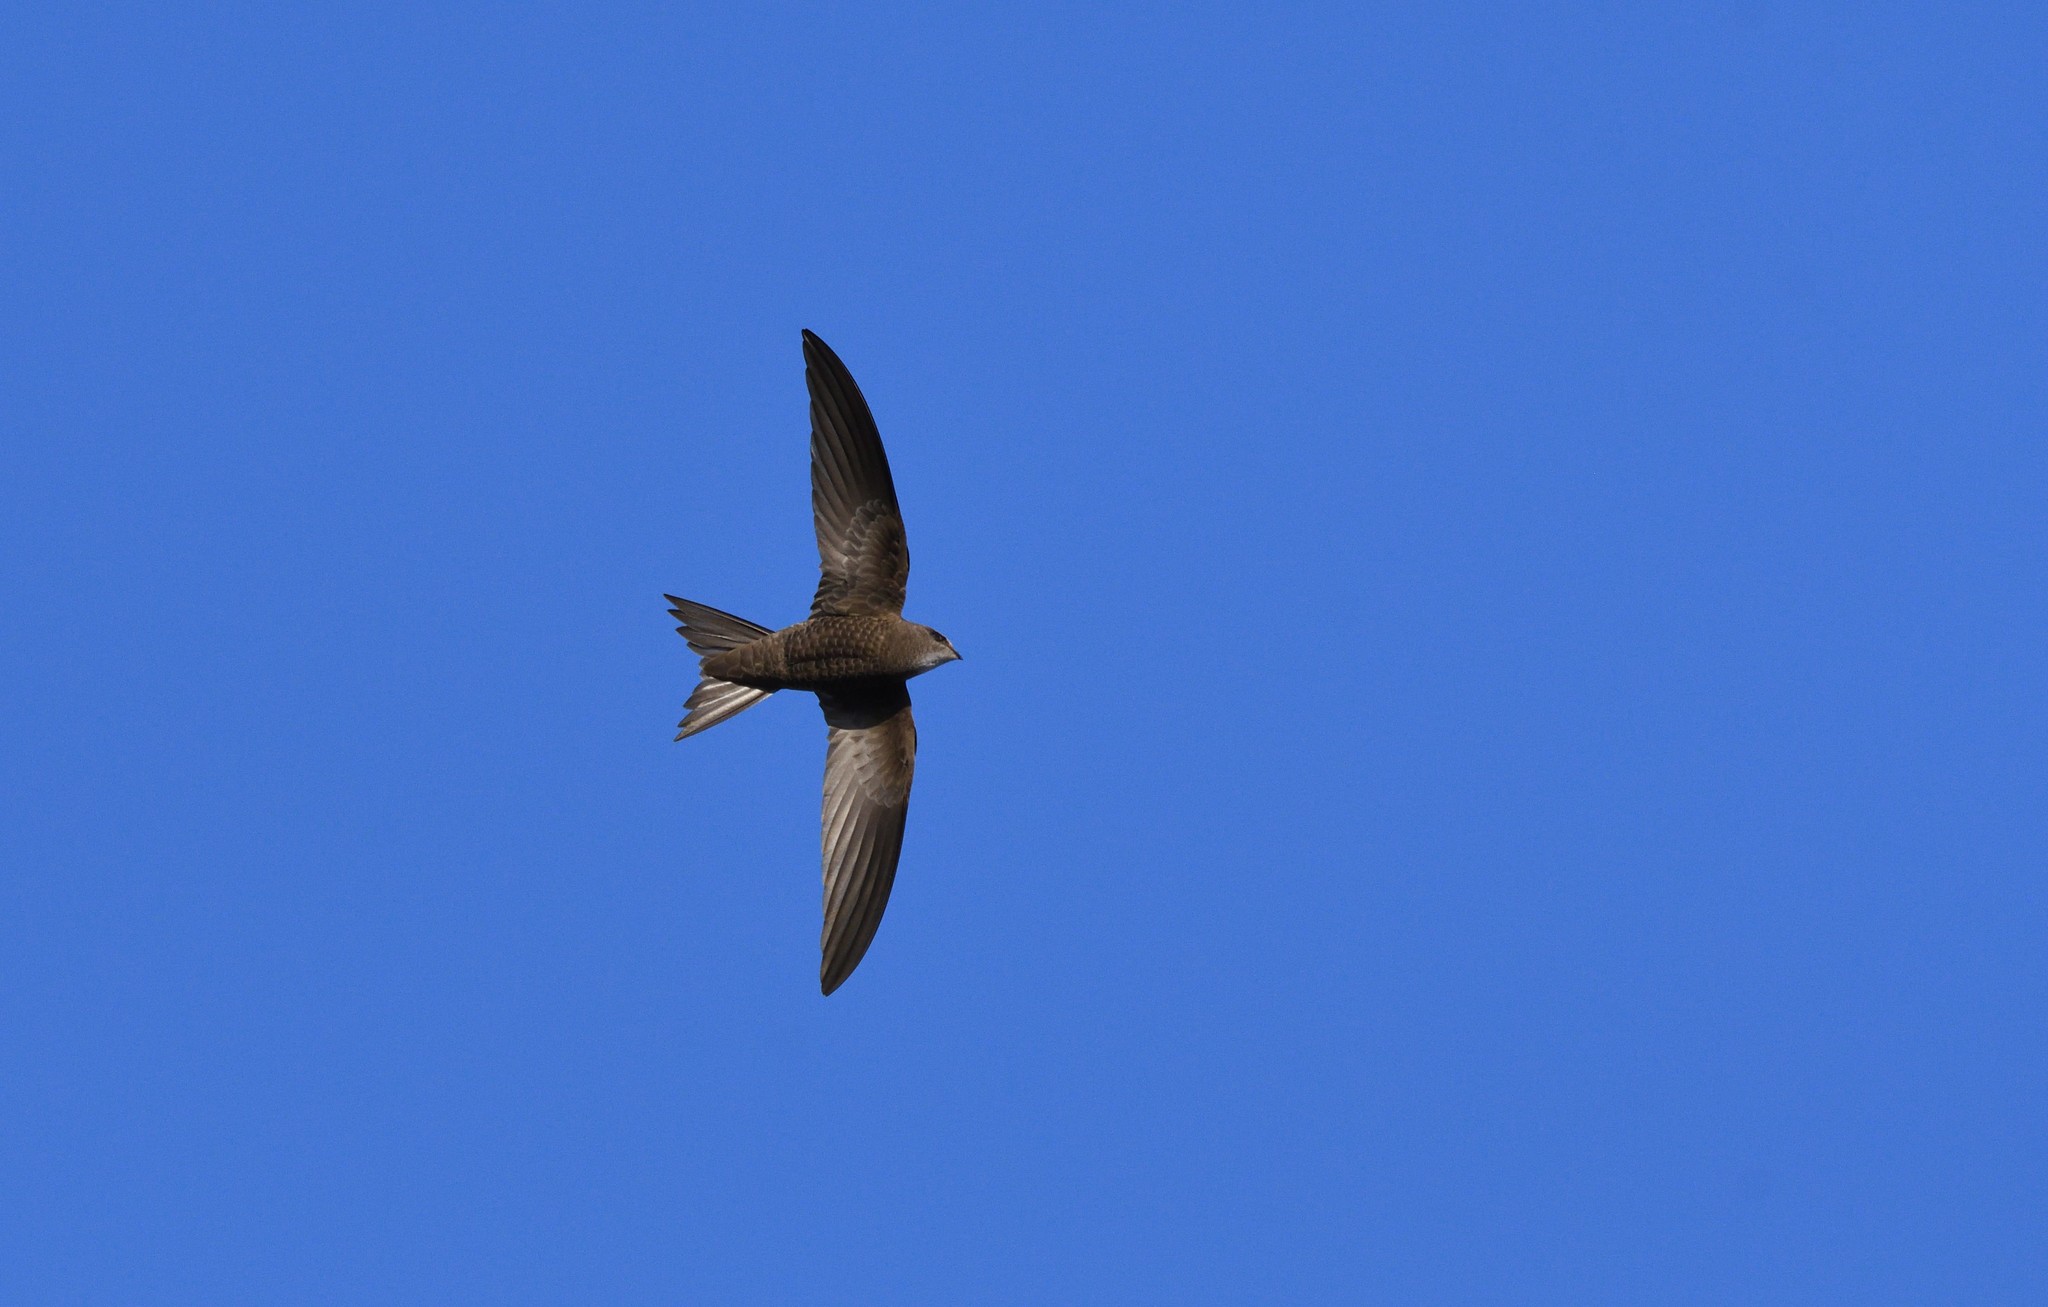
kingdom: Animalia
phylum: Chordata
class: Aves
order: Apodiformes
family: Apodidae
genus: Apus
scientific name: Apus pallidus
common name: Pallid swift
